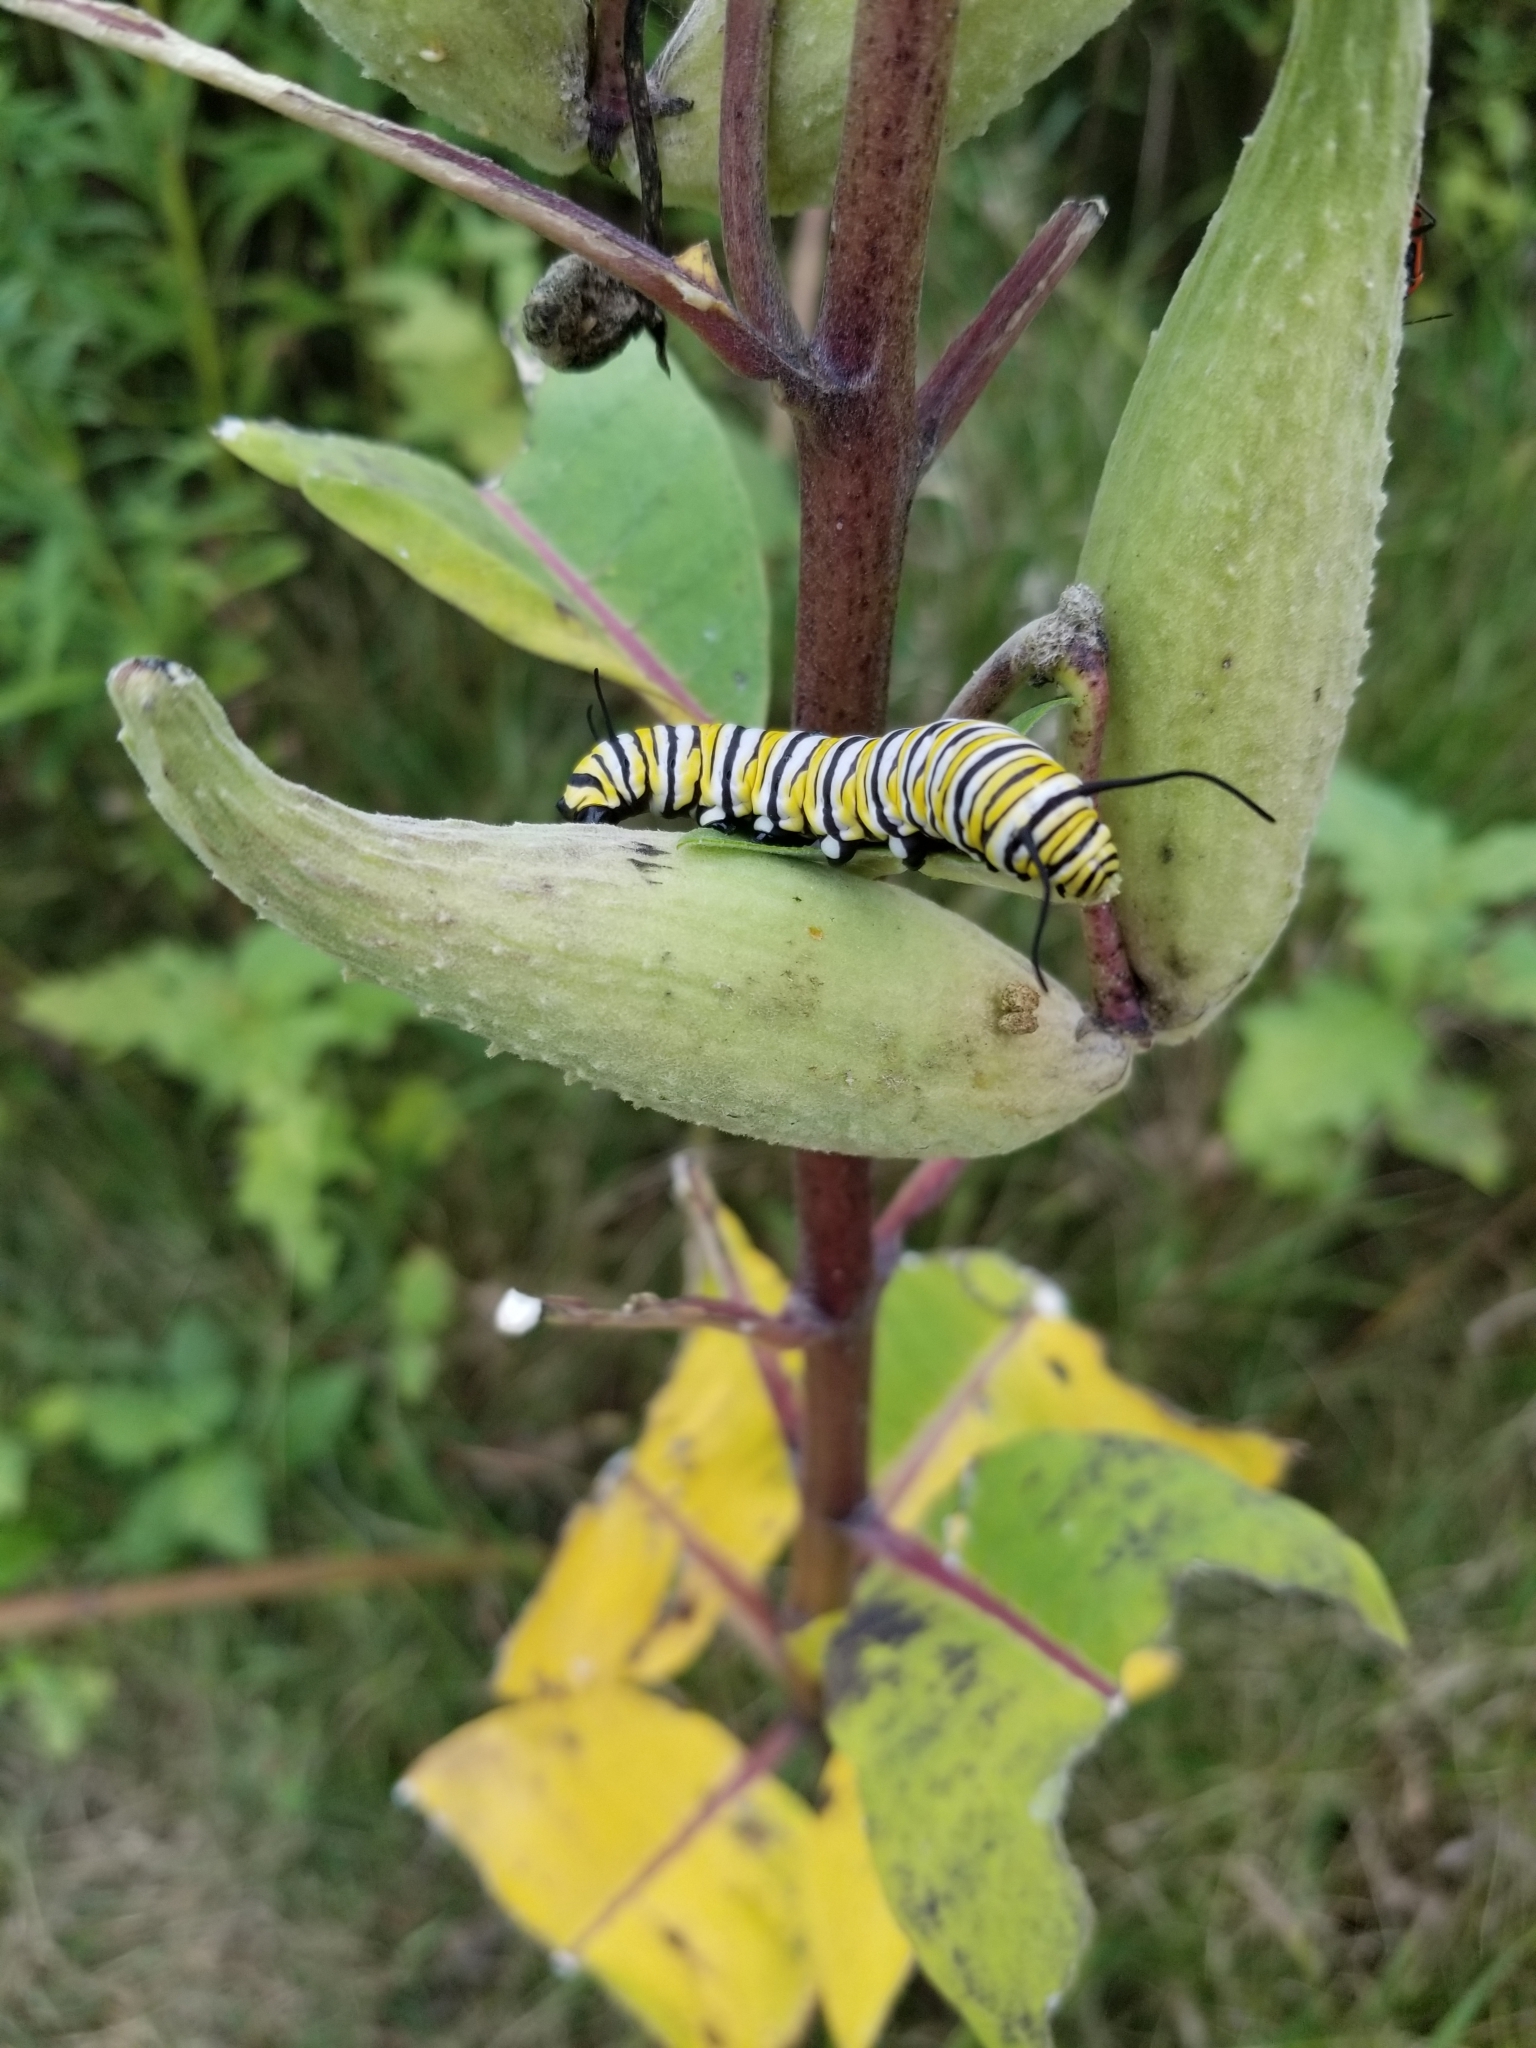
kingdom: Animalia
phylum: Arthropoda
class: Insecta
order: Lepidoptera
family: Nymphalidae
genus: Danaus
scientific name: Danaus plexippus
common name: Monarch
